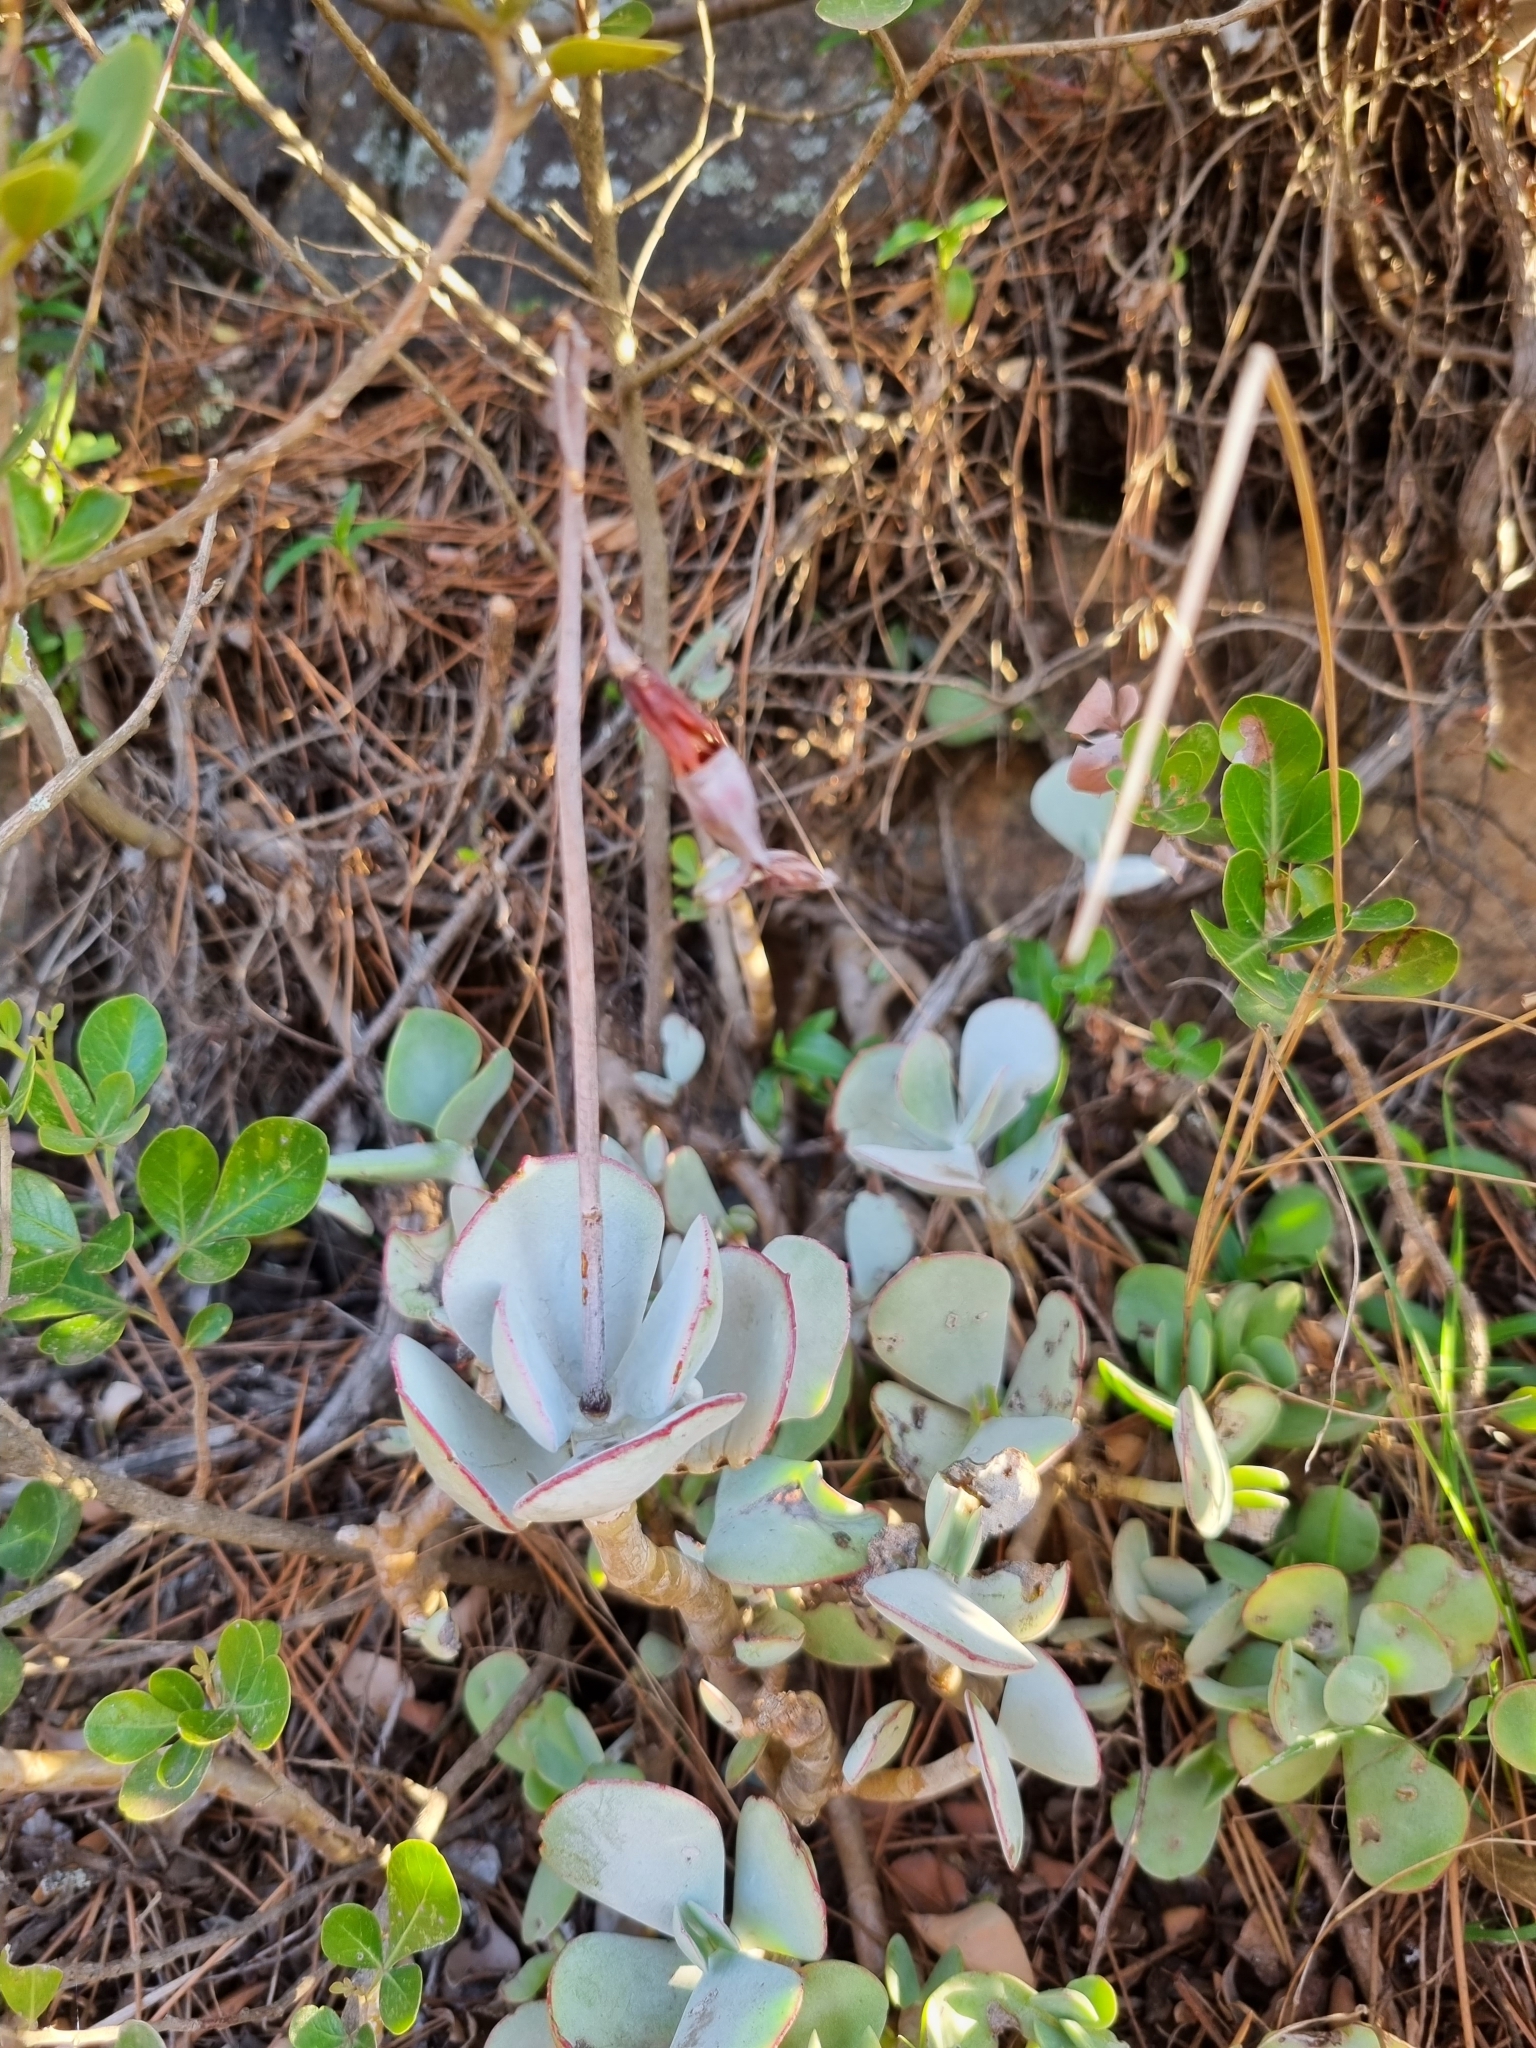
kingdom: Plantae
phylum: Tracheophyta
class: Magnoliopsida
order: Saxifragales
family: Crassulaceae
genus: Cotyledon
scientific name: Cotyledon orbiculata
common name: Pig's ear
